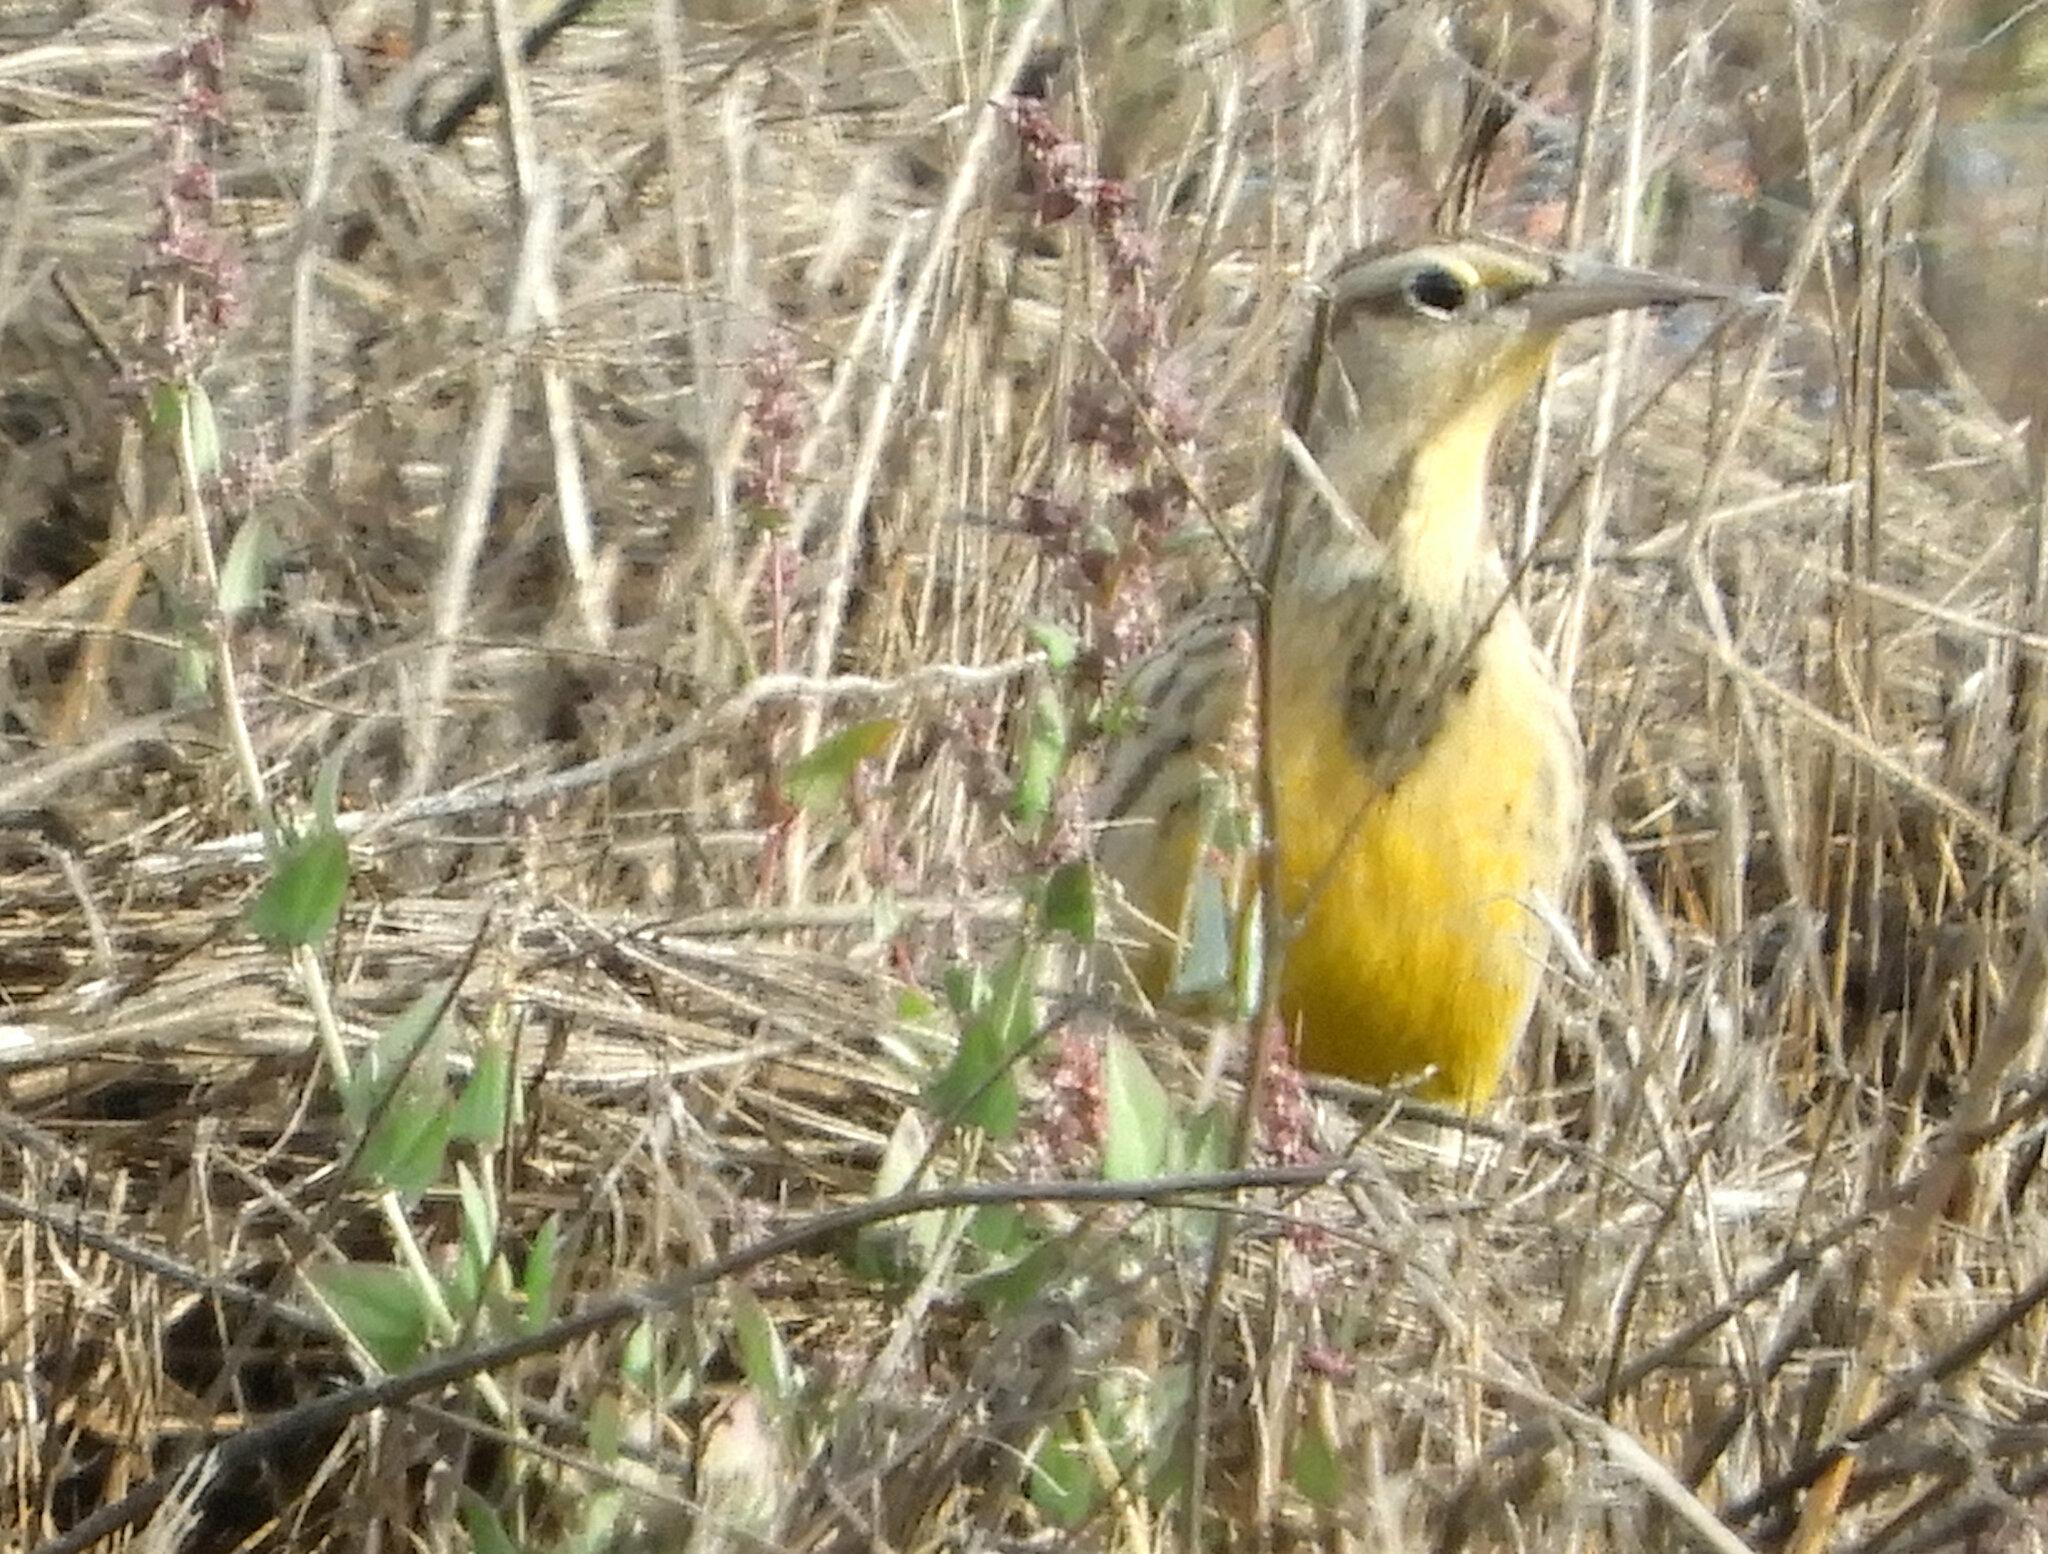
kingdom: Animalia
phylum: Chordata
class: Aves
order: Passeriformes
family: Icteridae
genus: Sturnella
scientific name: Sturnella neglecta
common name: Western meadowlark
